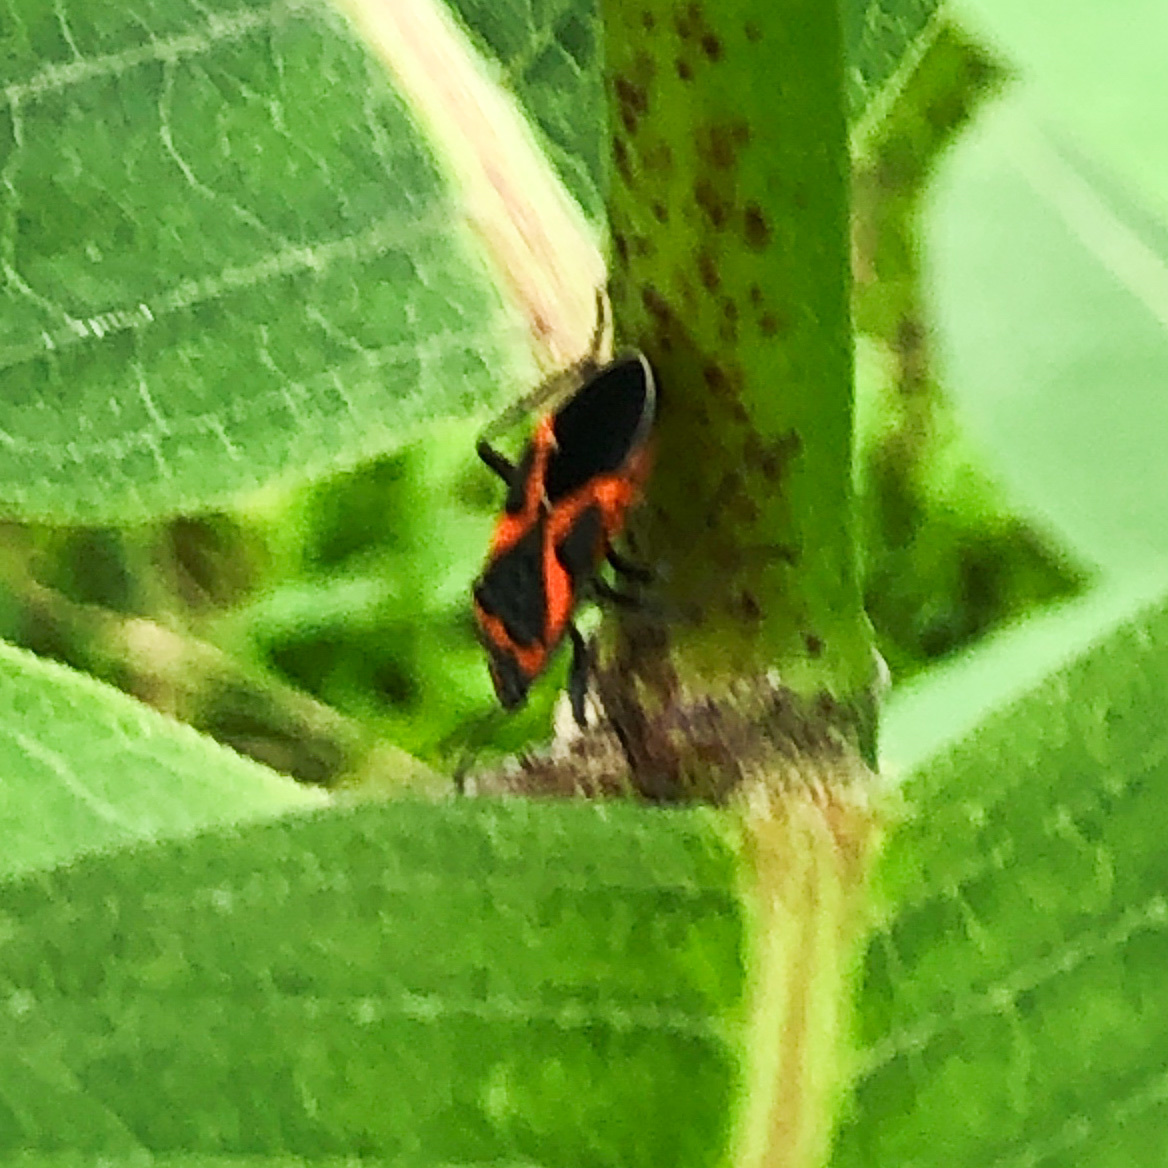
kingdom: Animalia
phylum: Arthropoda
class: Insecta
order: Hemiptera
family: Lygaeidae
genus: Lygaeus
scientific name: Lygaeus kalmii
